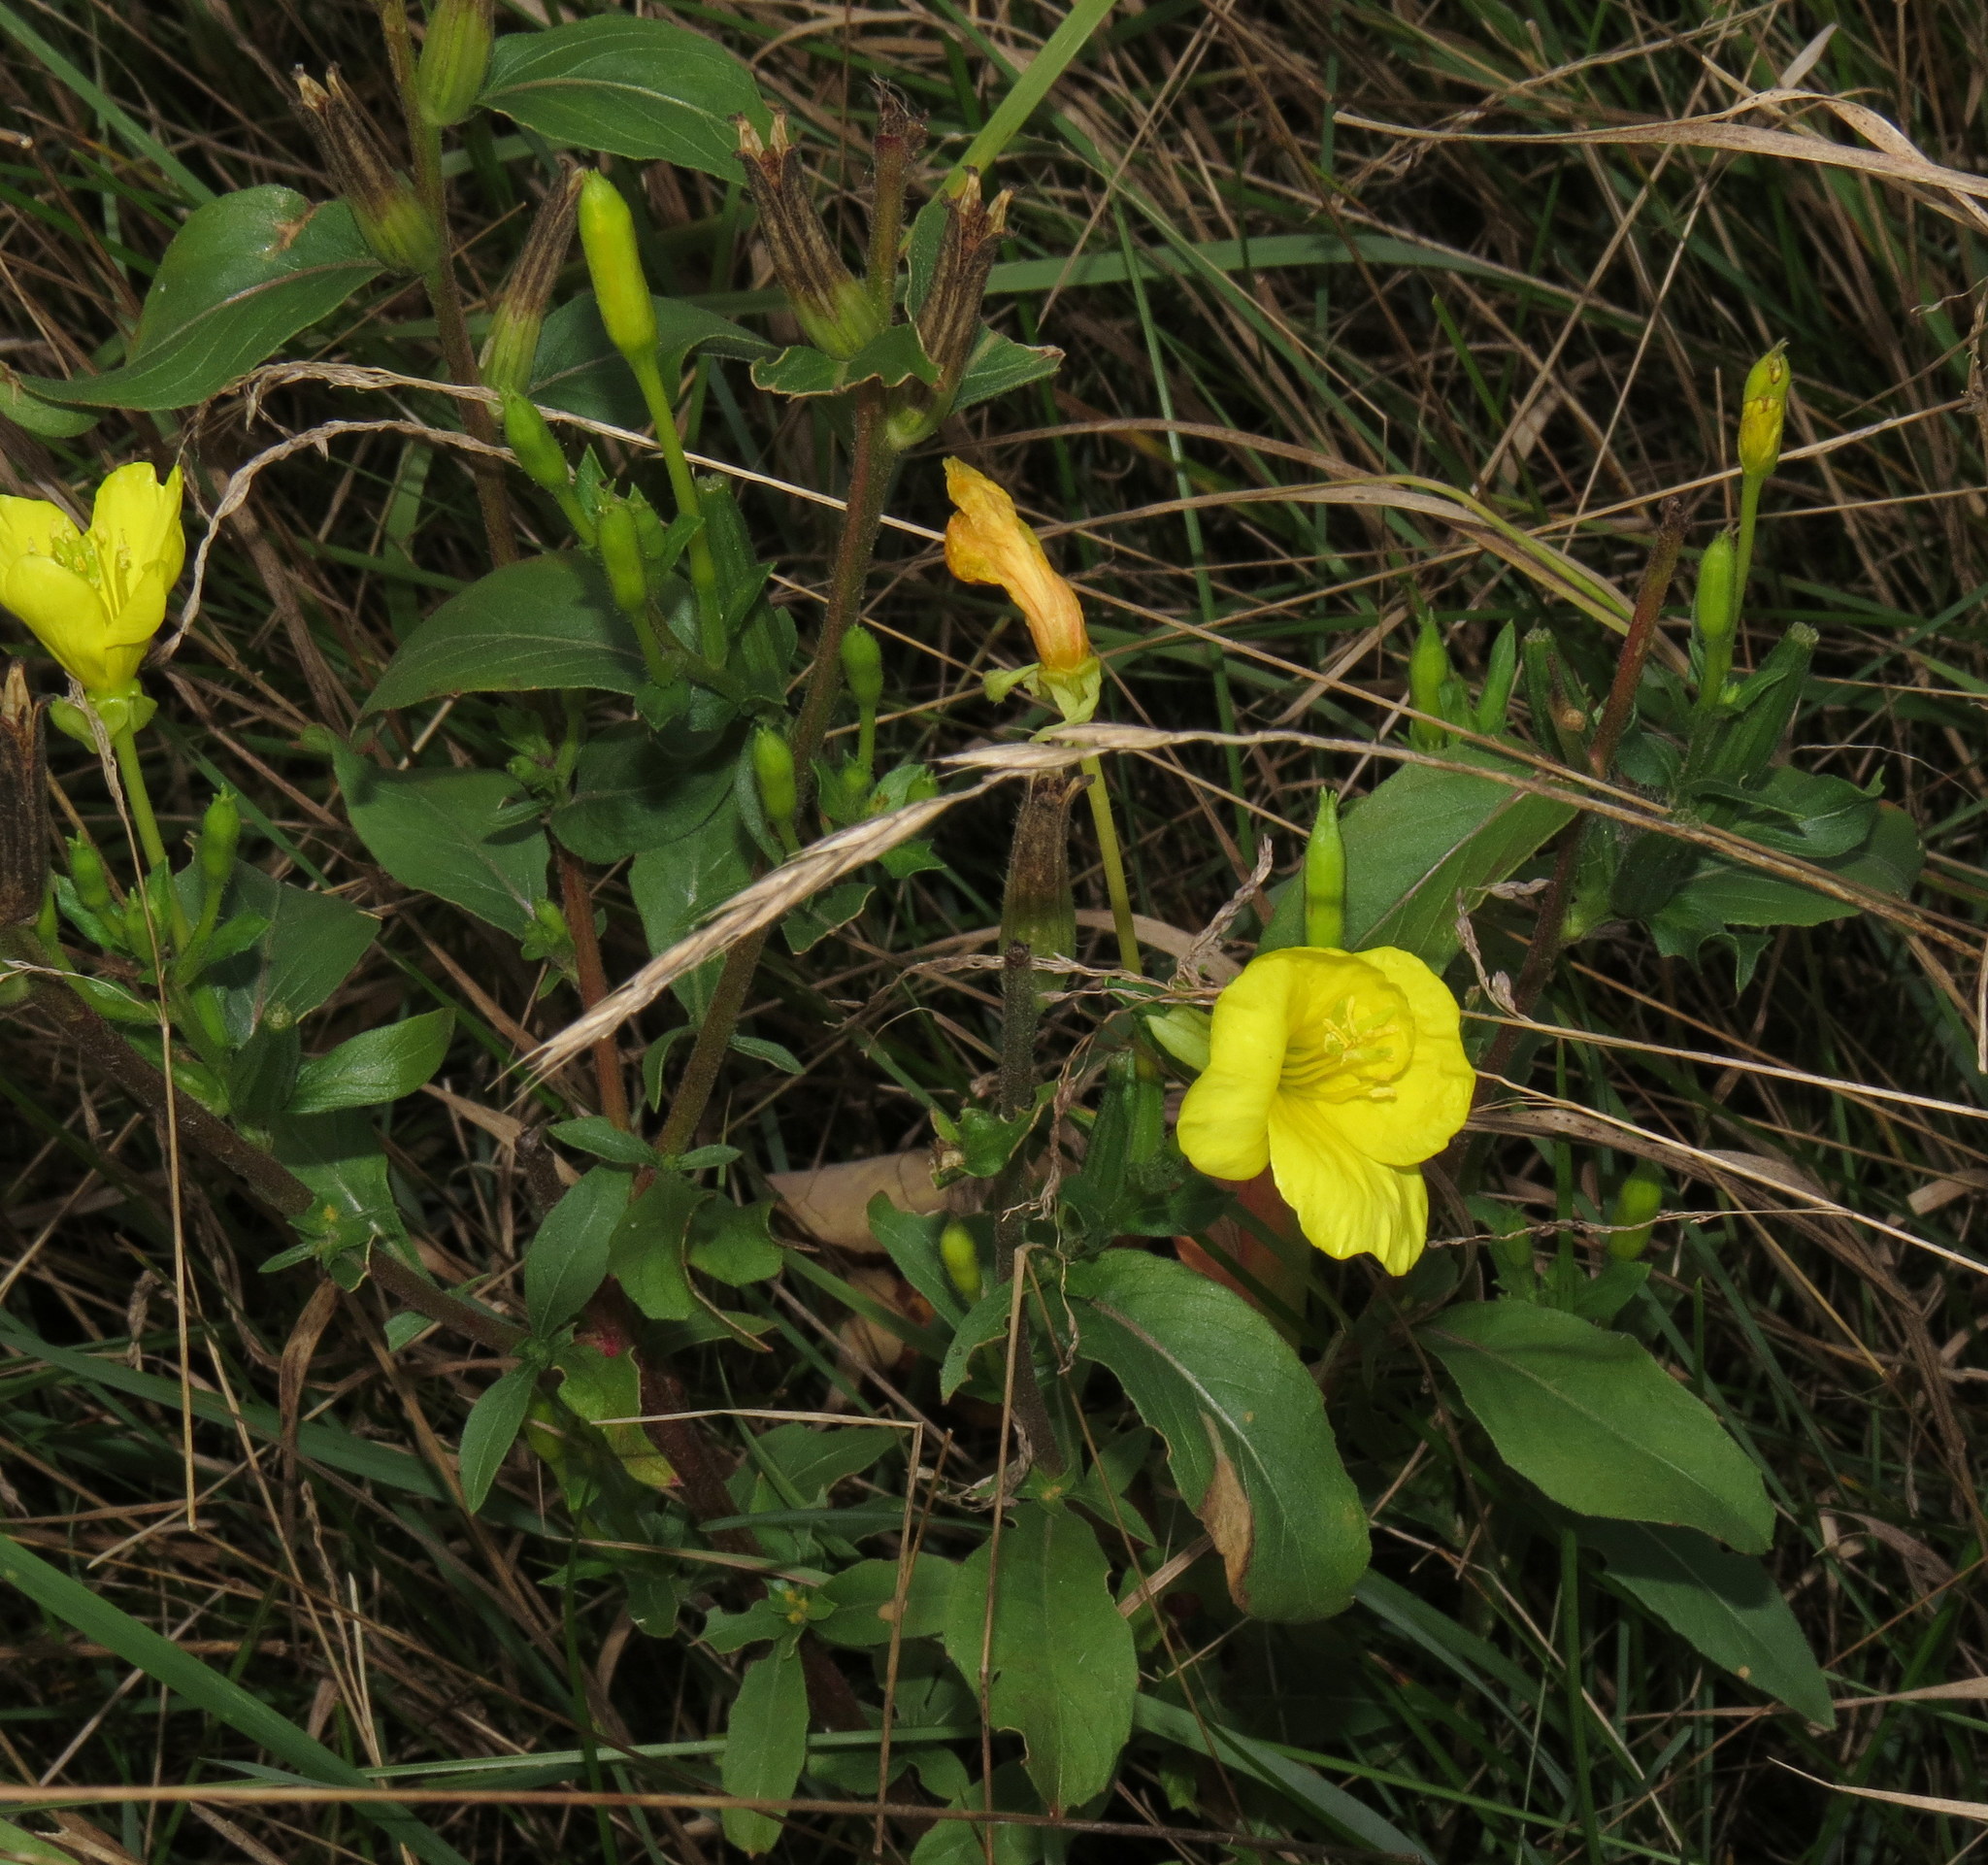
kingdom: Plantae
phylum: Tracheophyta
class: Magnoliopsida
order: Myrtales
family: Onagraceae
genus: Oenothera
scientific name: Oenothera biennis
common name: Common evening-primrose
